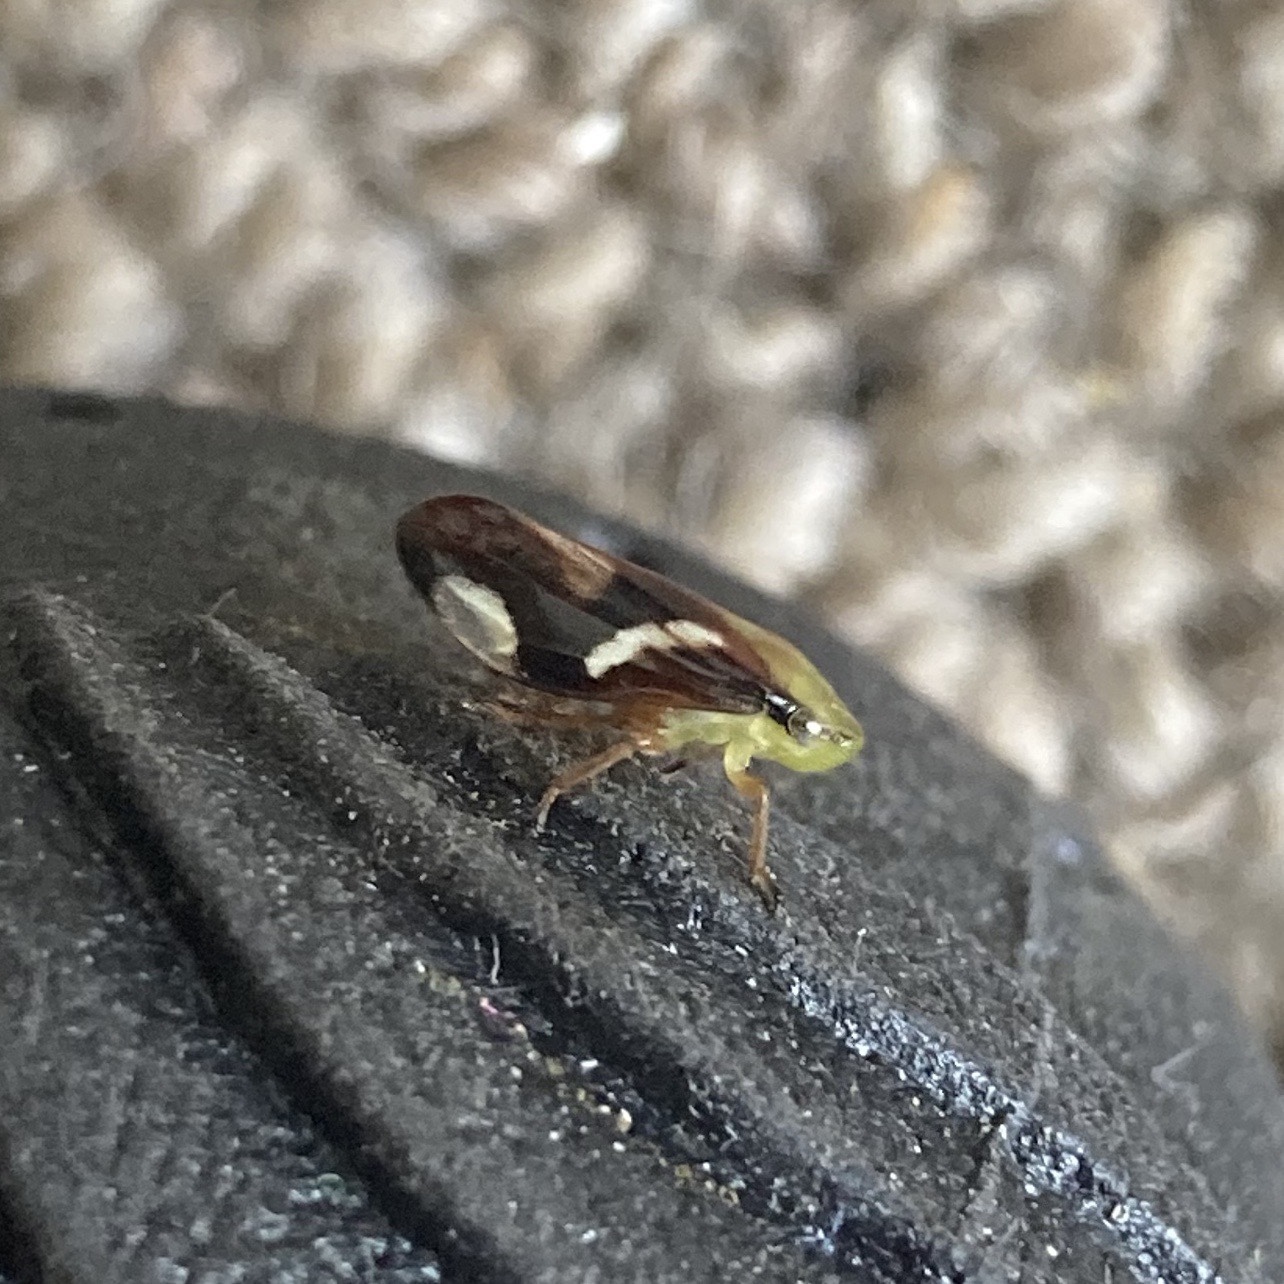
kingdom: Animalia
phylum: Arthropoda
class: Insecta
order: Hemiptera
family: Aphrophoridae
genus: Carystoterpa
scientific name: Carystoterpa fingens
